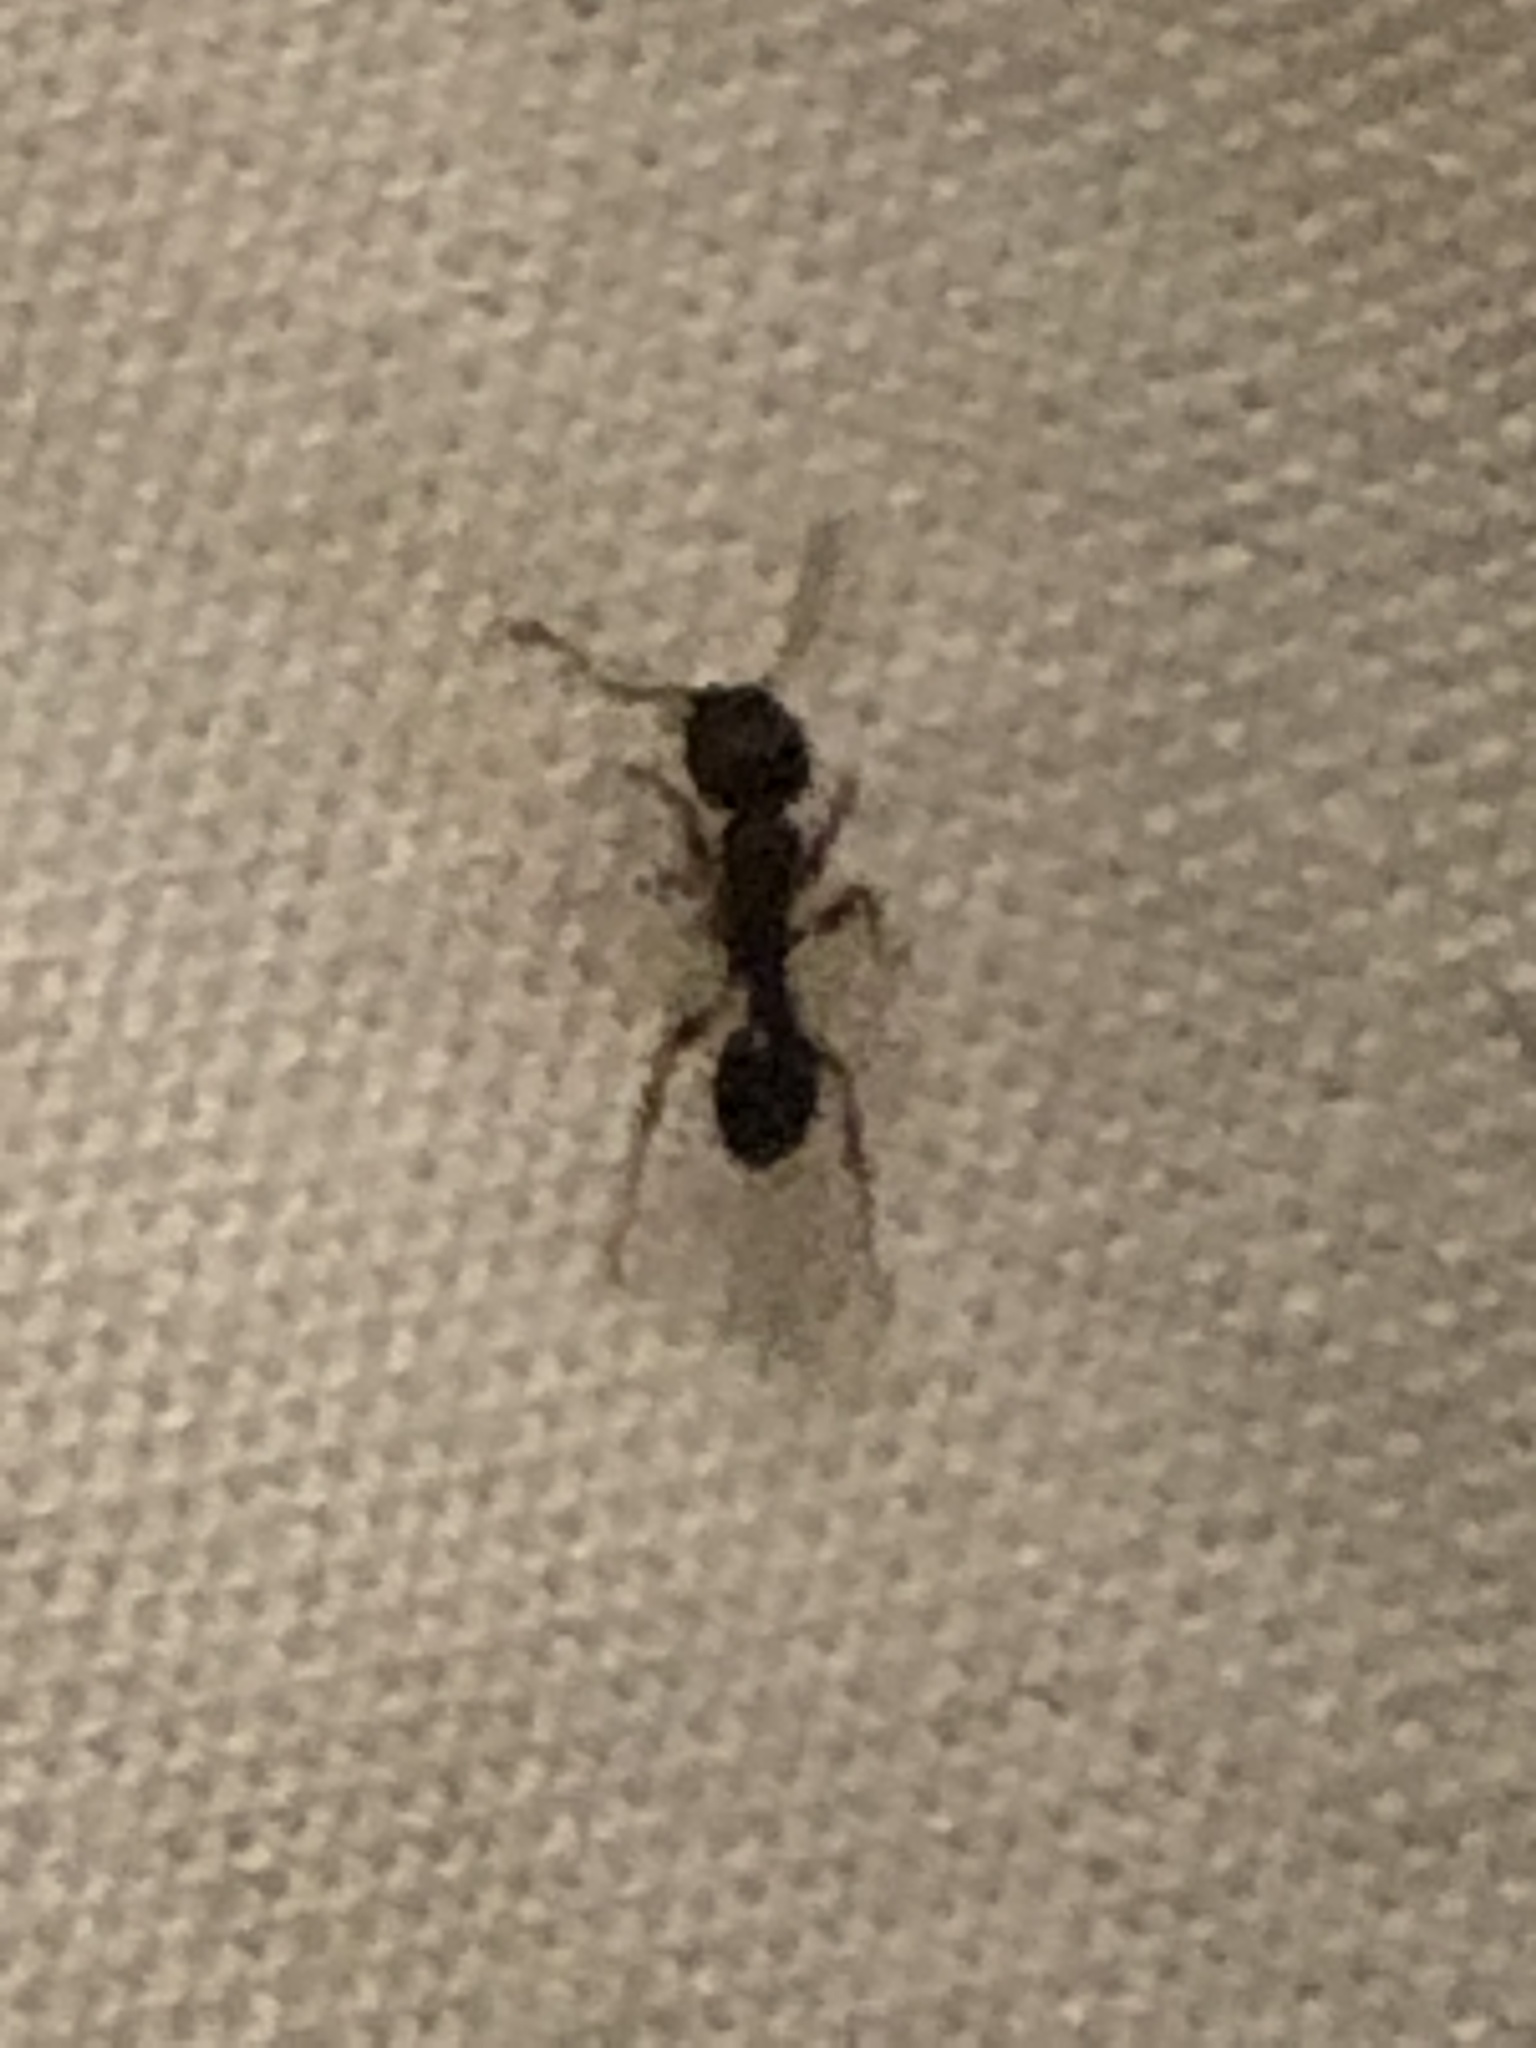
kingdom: Animalia
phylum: Arthropoda
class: Insecta
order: Hymenoptera
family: Formicidae
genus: Tetramorium
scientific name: Tetramorium immigrans
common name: Pavement ant
